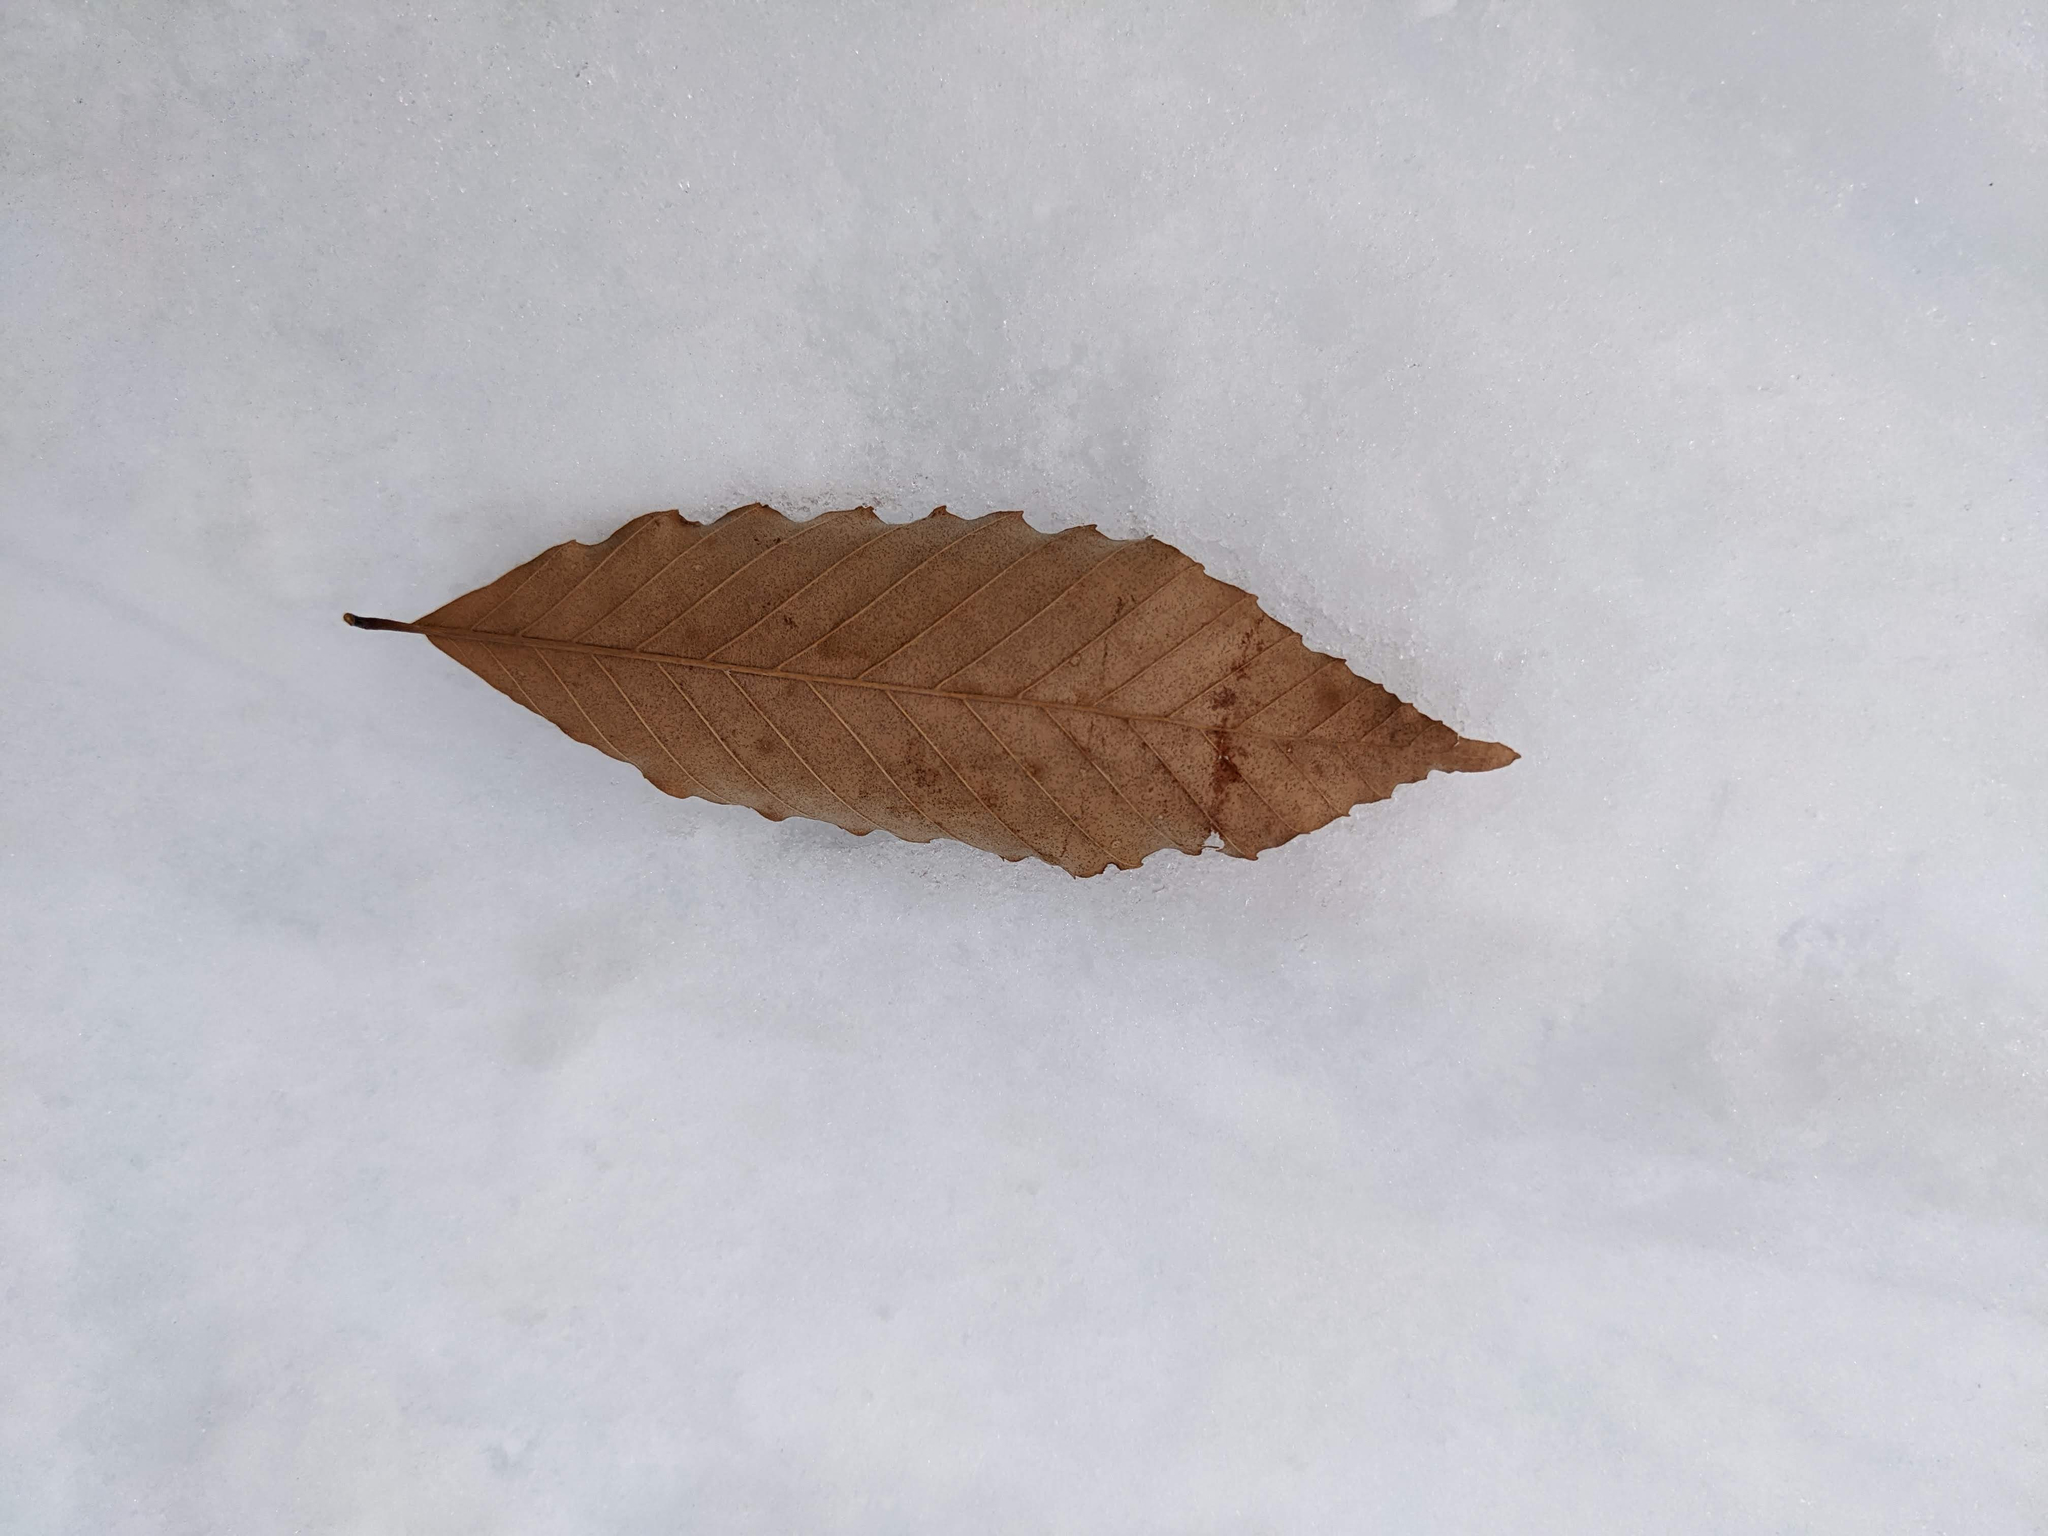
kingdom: Plantae
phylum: Tracheophyta
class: Magnoliopsida
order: Fagales
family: Fagaceae
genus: Fagus
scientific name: Fagus grandifolia
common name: American beech
